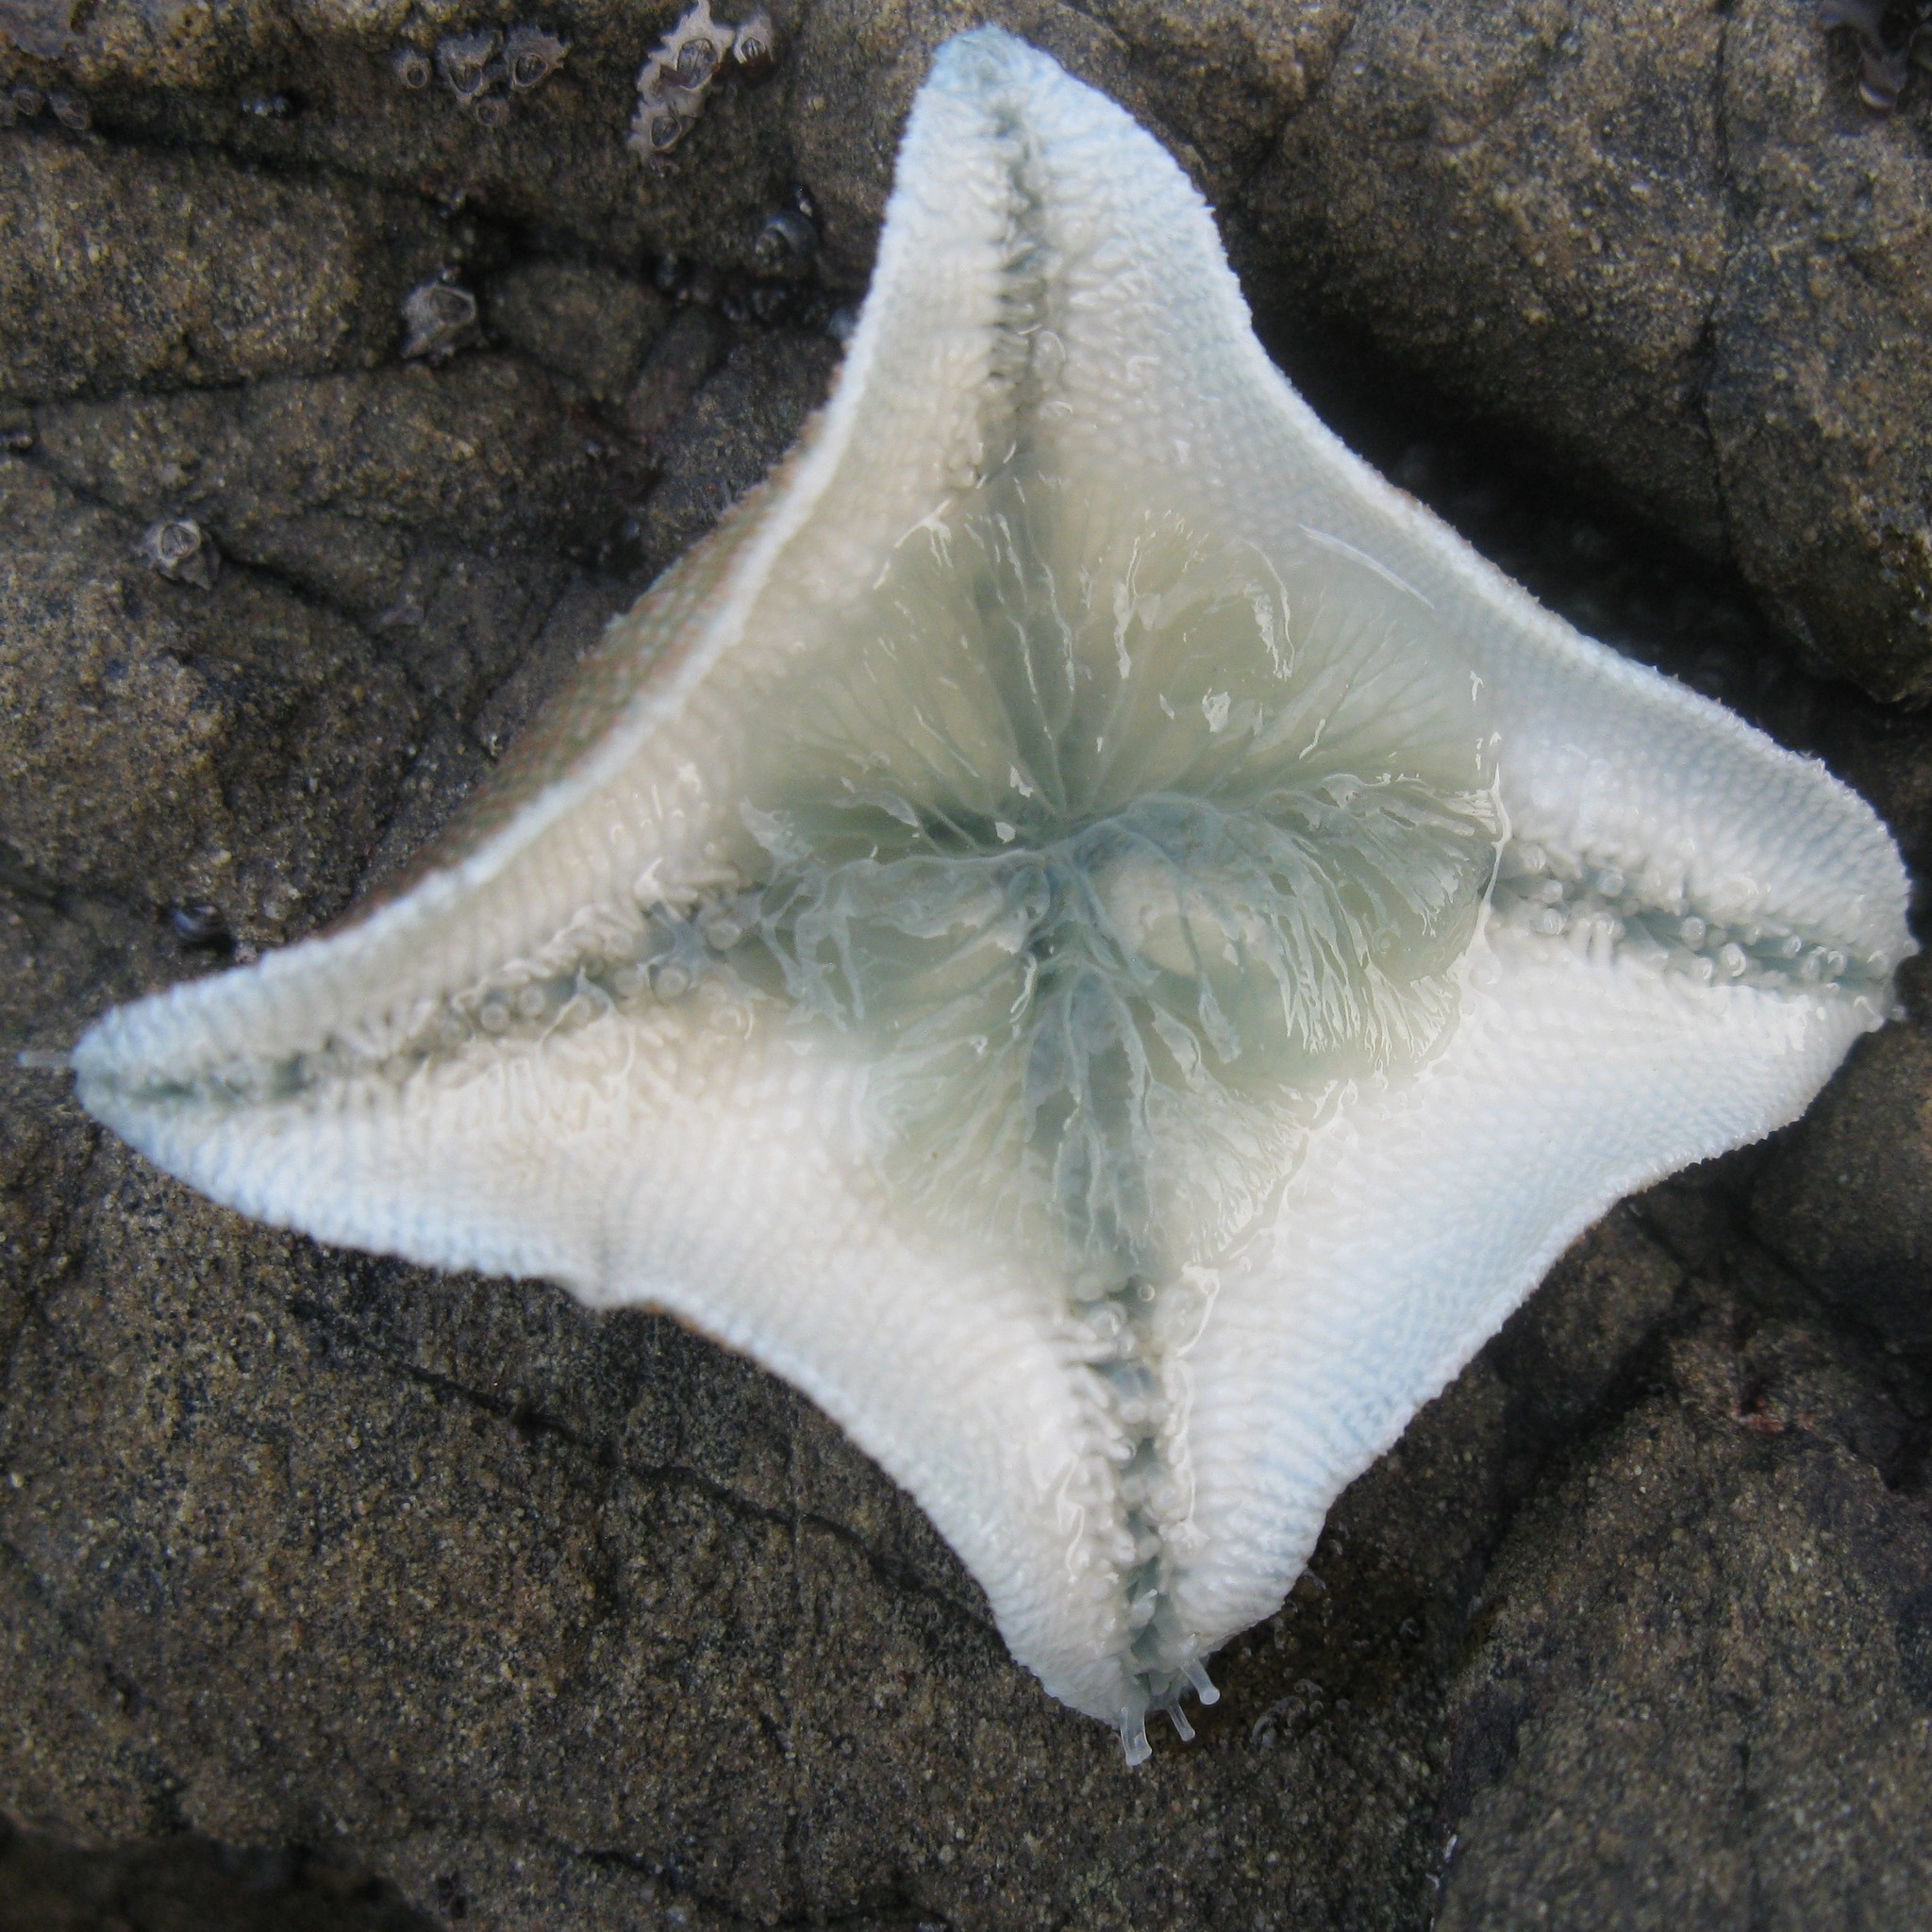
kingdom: Animalia
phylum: Echinodermata
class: Asteroidea
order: Valvatida
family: Asterinidae
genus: Patiriella
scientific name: Patiriella regularis
